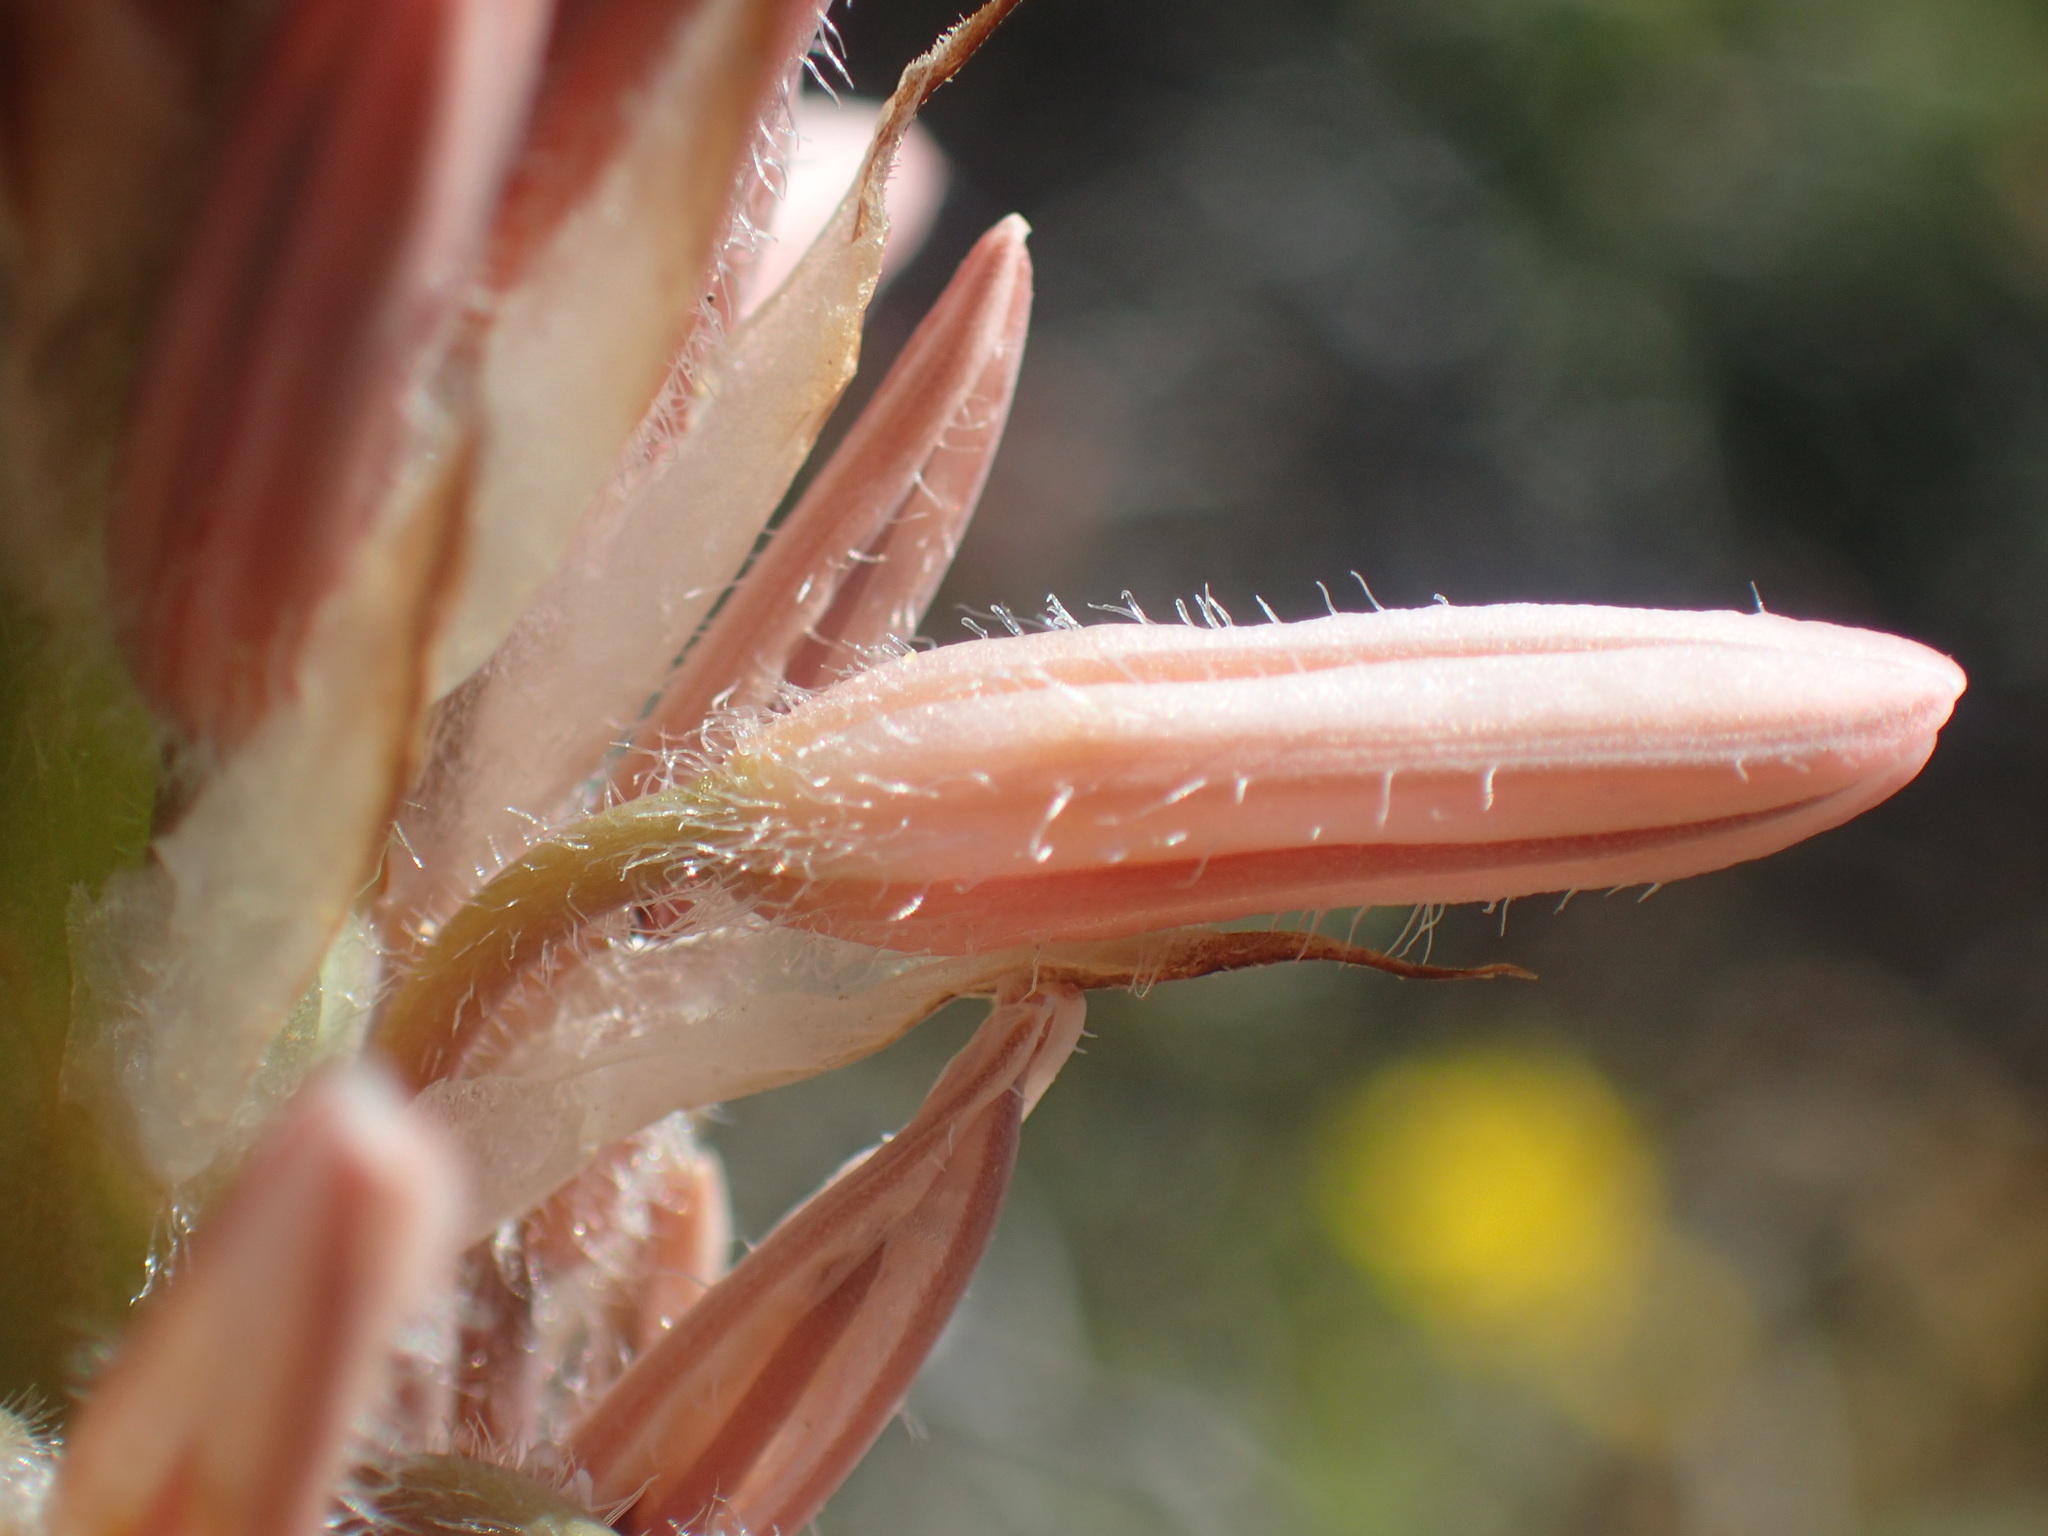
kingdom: Plantae
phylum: Tracheophyta
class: Liliopsida
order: Asparagales
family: Asphodelaceae
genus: Trachyandra
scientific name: Trachyandra falcata
